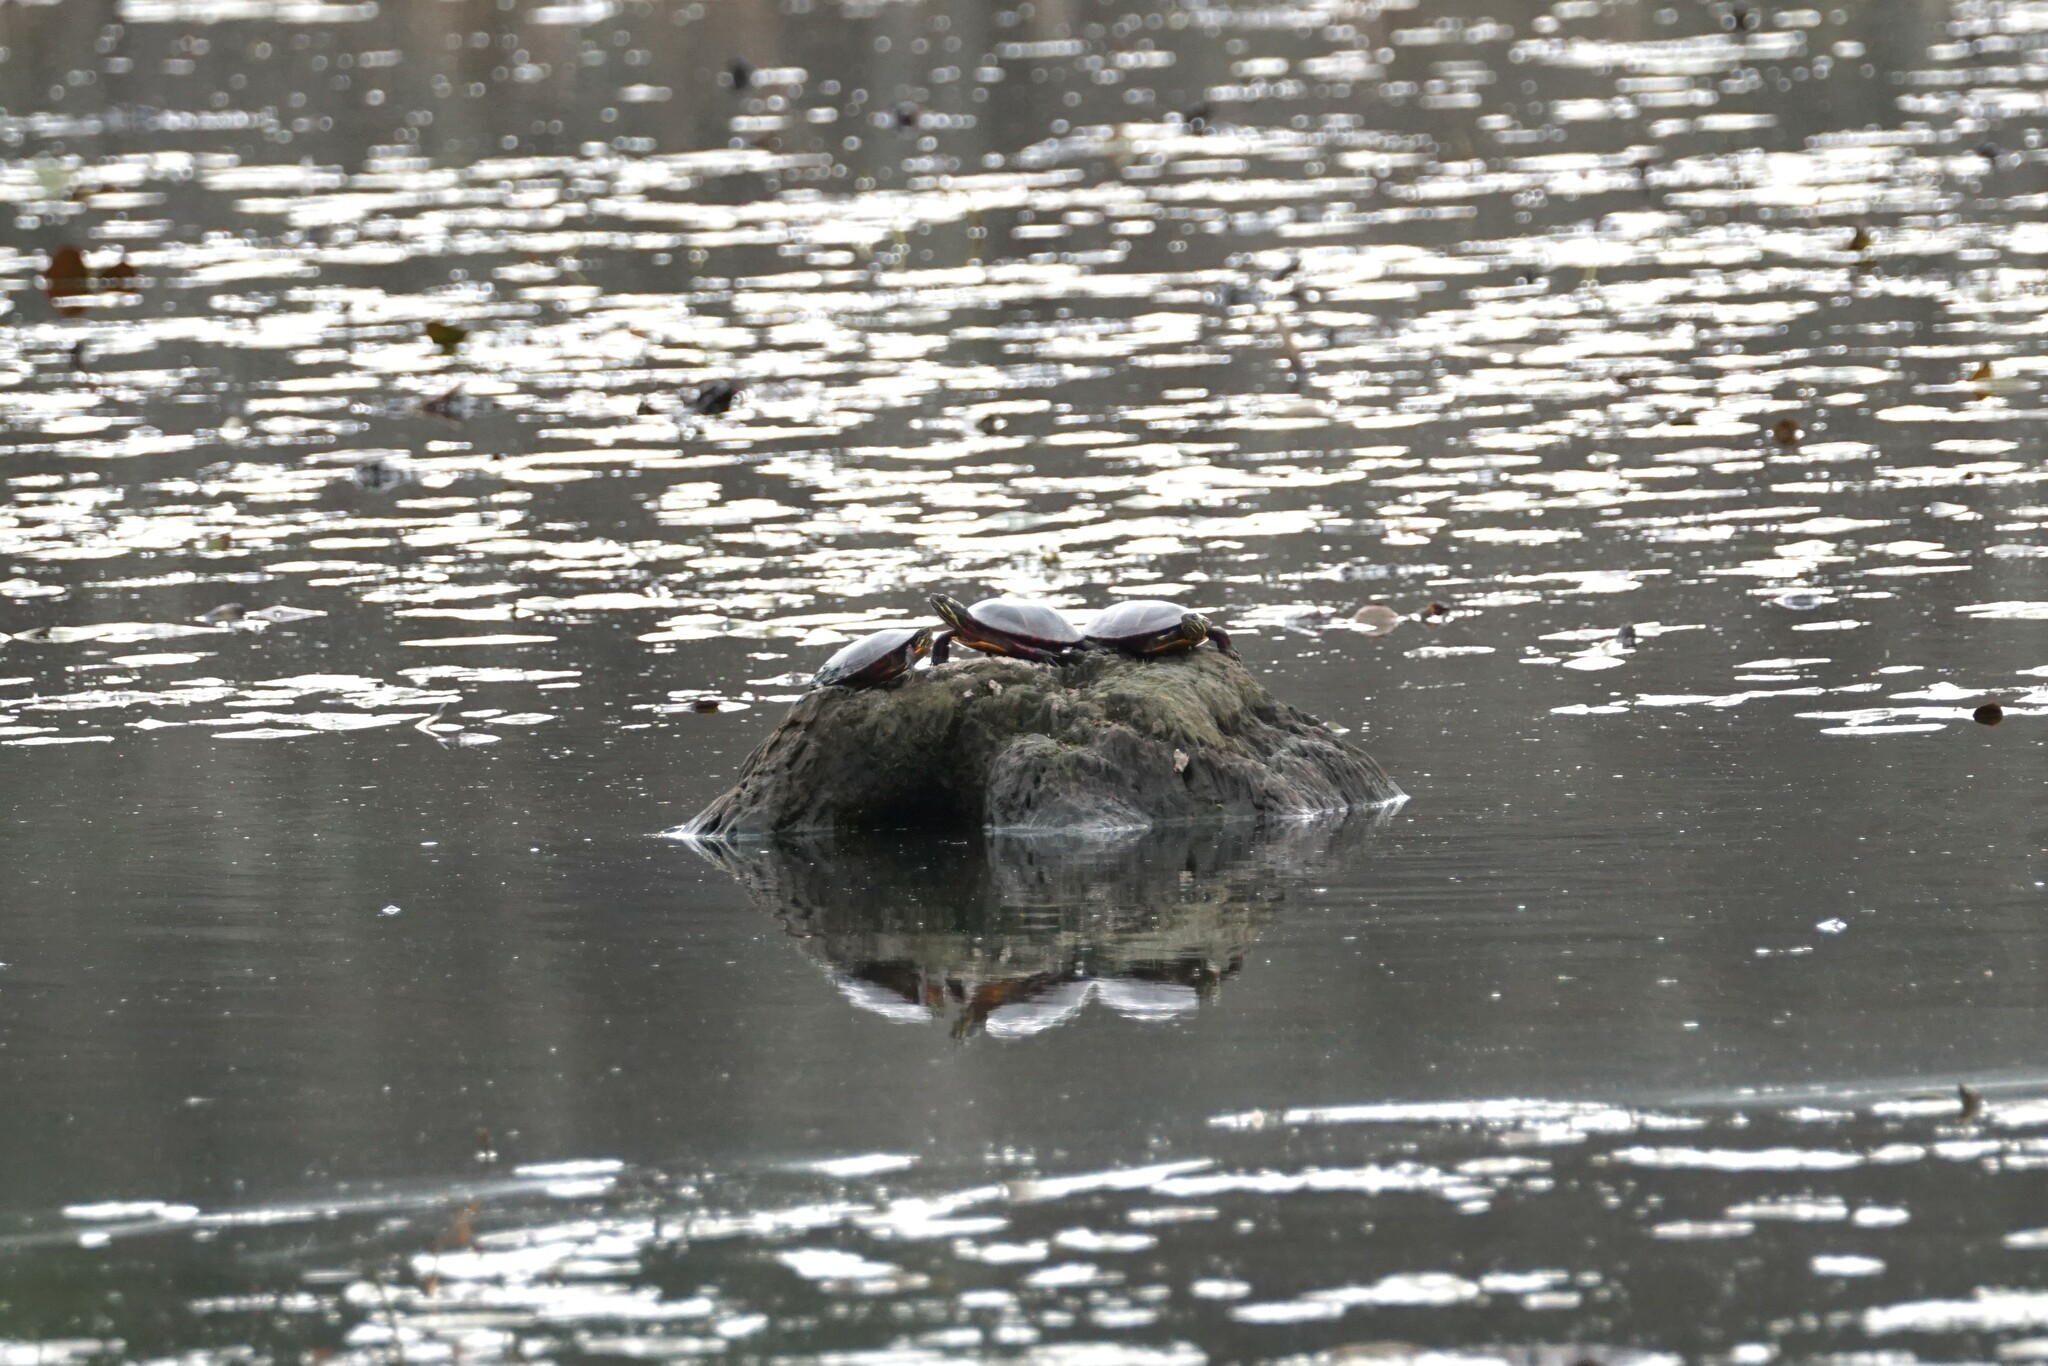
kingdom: Animalia
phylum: Chordata
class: Testudines
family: Emydidae
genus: Chrysemys
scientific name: Chrysemys picta
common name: Painted turtle
